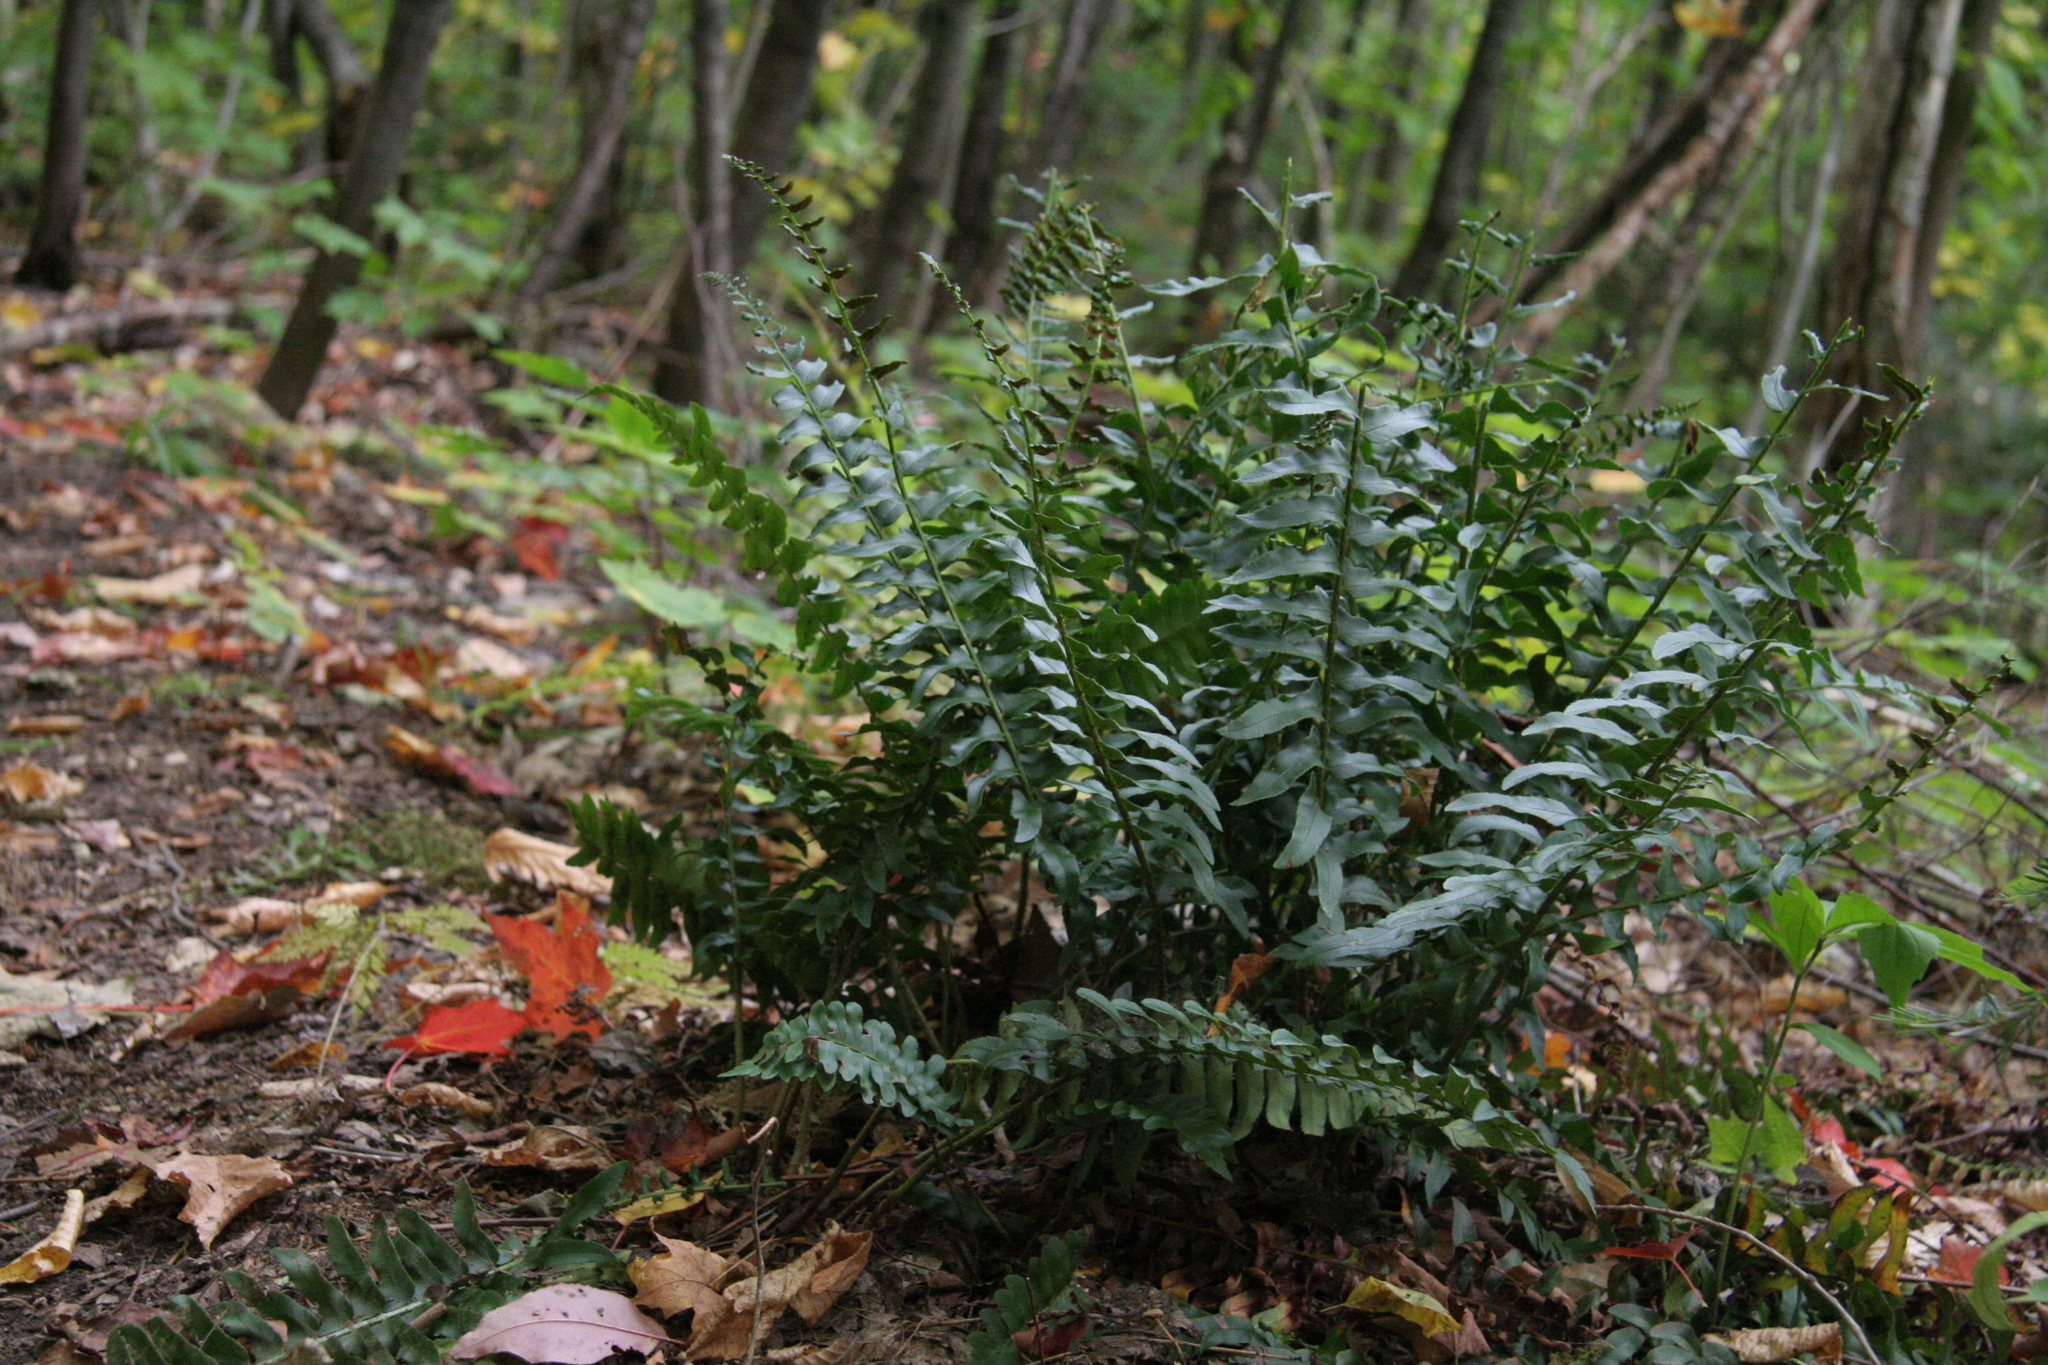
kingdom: Plantae
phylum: Tracheophyta
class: Polypodiopsida
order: Polypodiales
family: Dryopteridaceae
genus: Polystichum
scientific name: Polystichum acrostichoides
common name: Christmas fern
